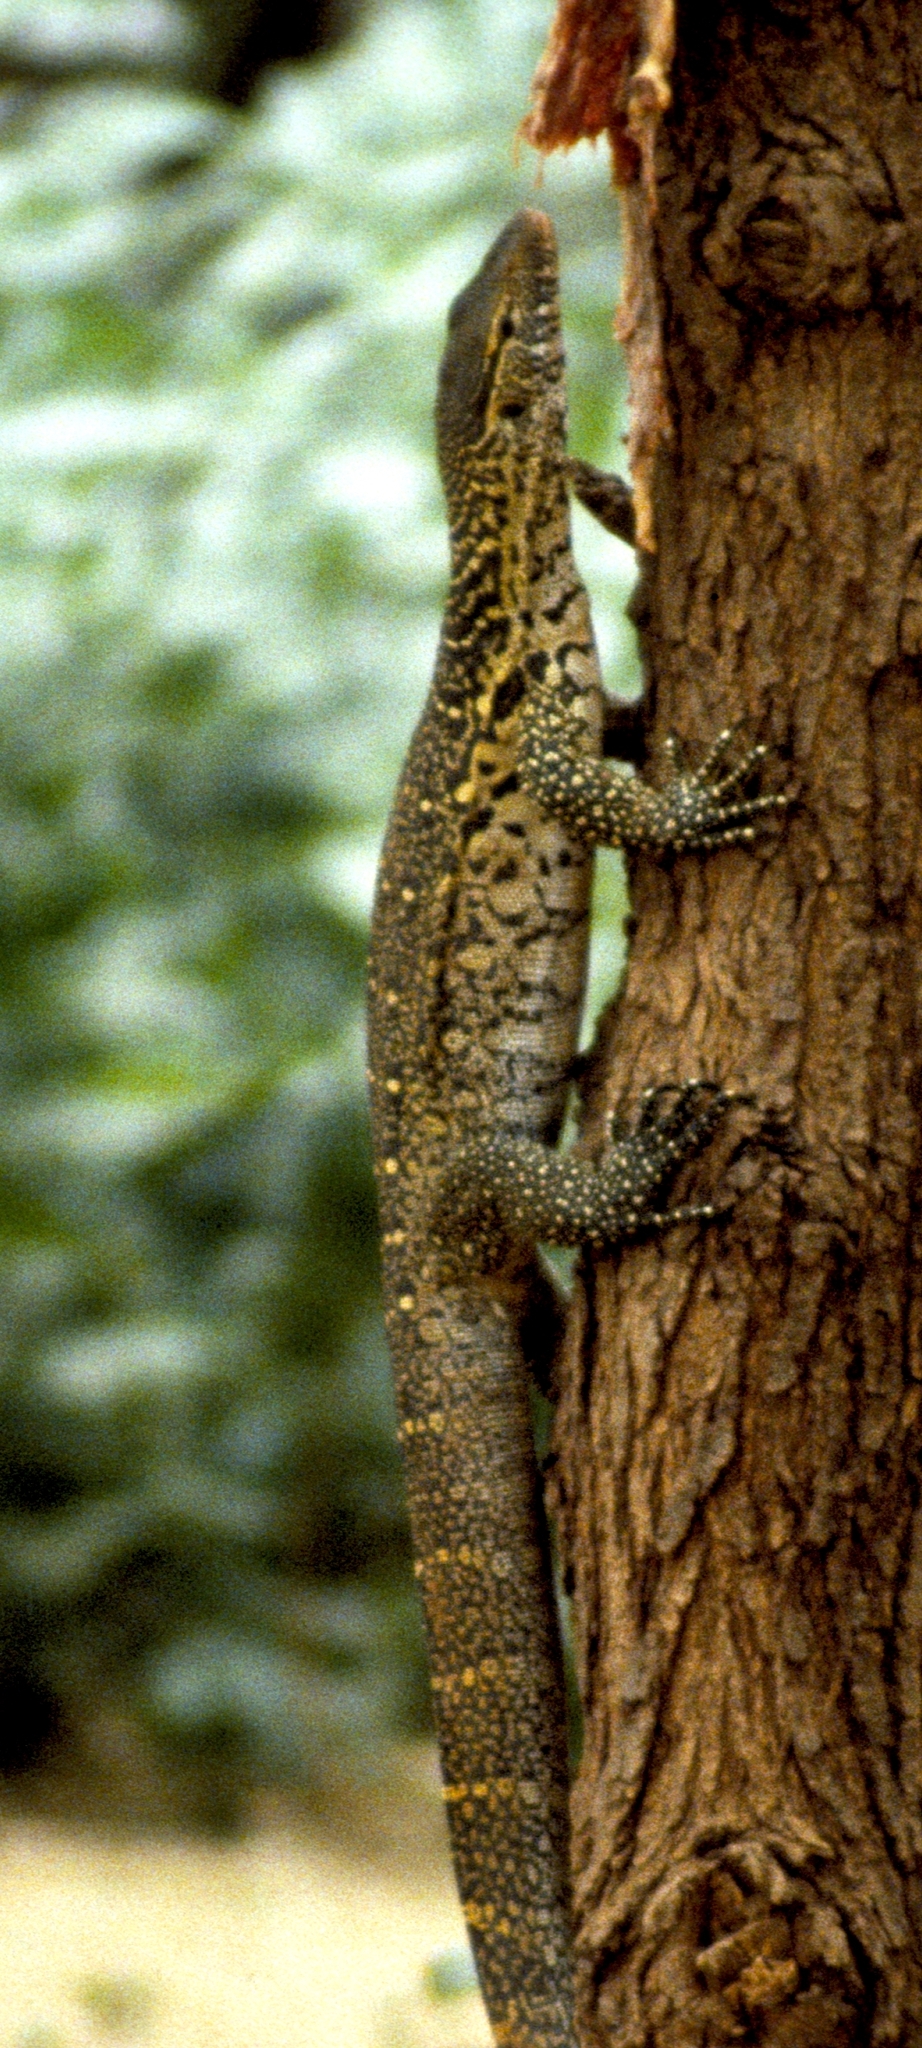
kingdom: Animalia
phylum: Chordata
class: Squamata
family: Varanidae
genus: Varanus
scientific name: Varanus niloticus
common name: Nile monitor
